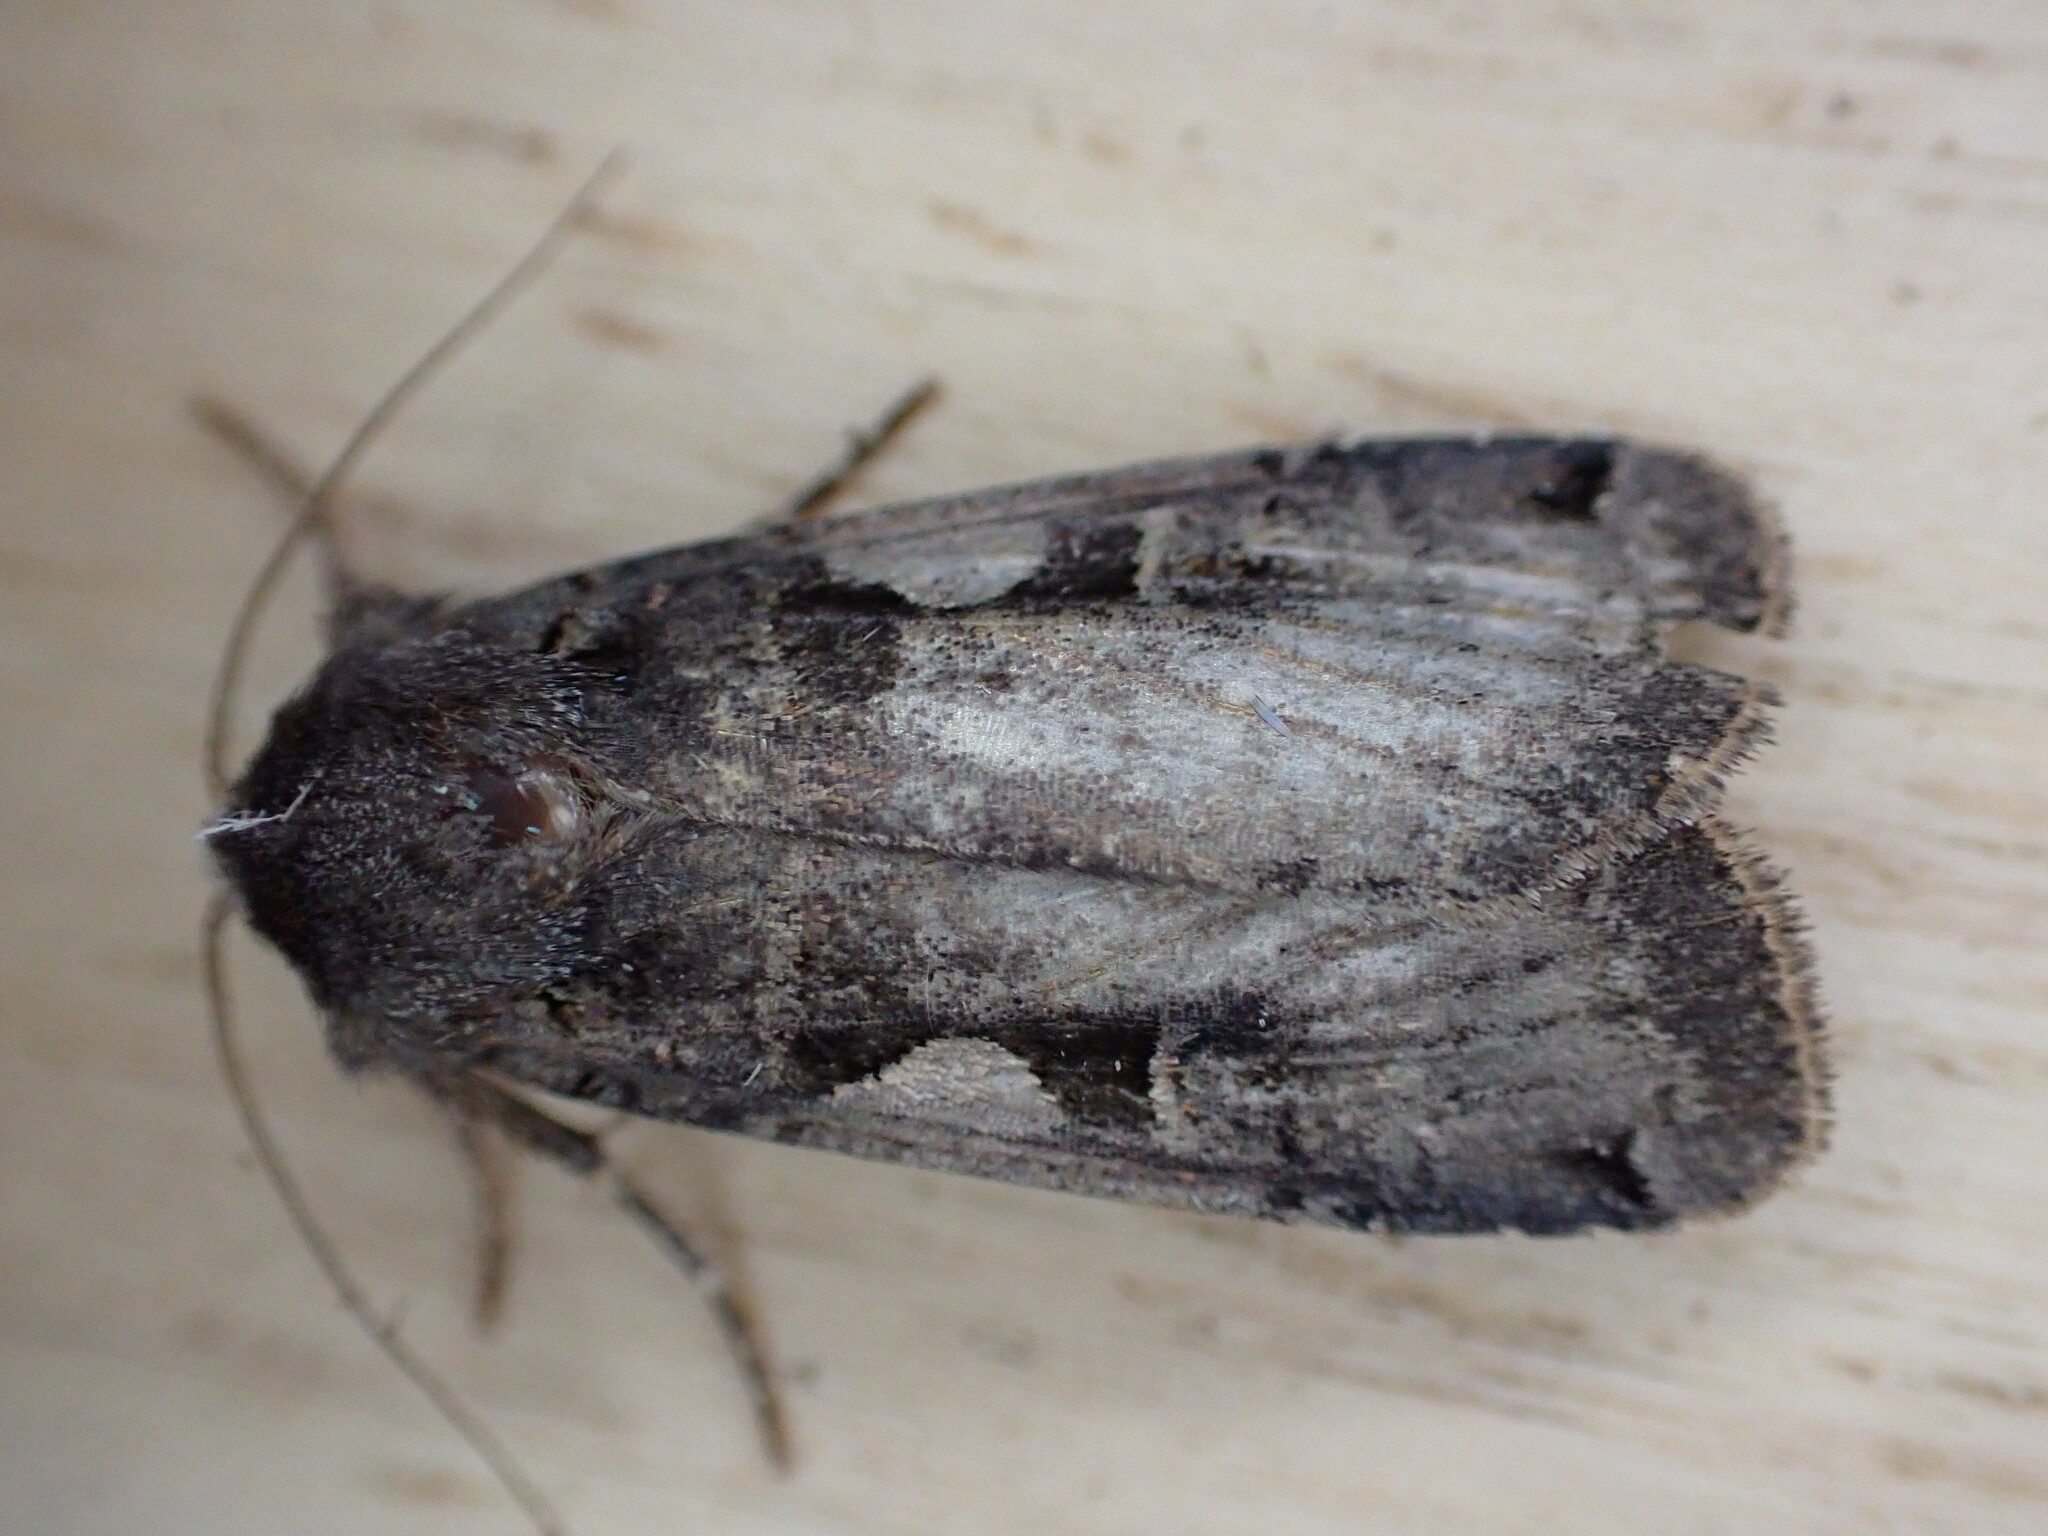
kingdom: Animalia
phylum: Arthropoda
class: Insecta
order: Lepidoptera
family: Noctuidae
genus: Xestia
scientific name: Xestia c-nigrum
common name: Setaceous hebrew character
